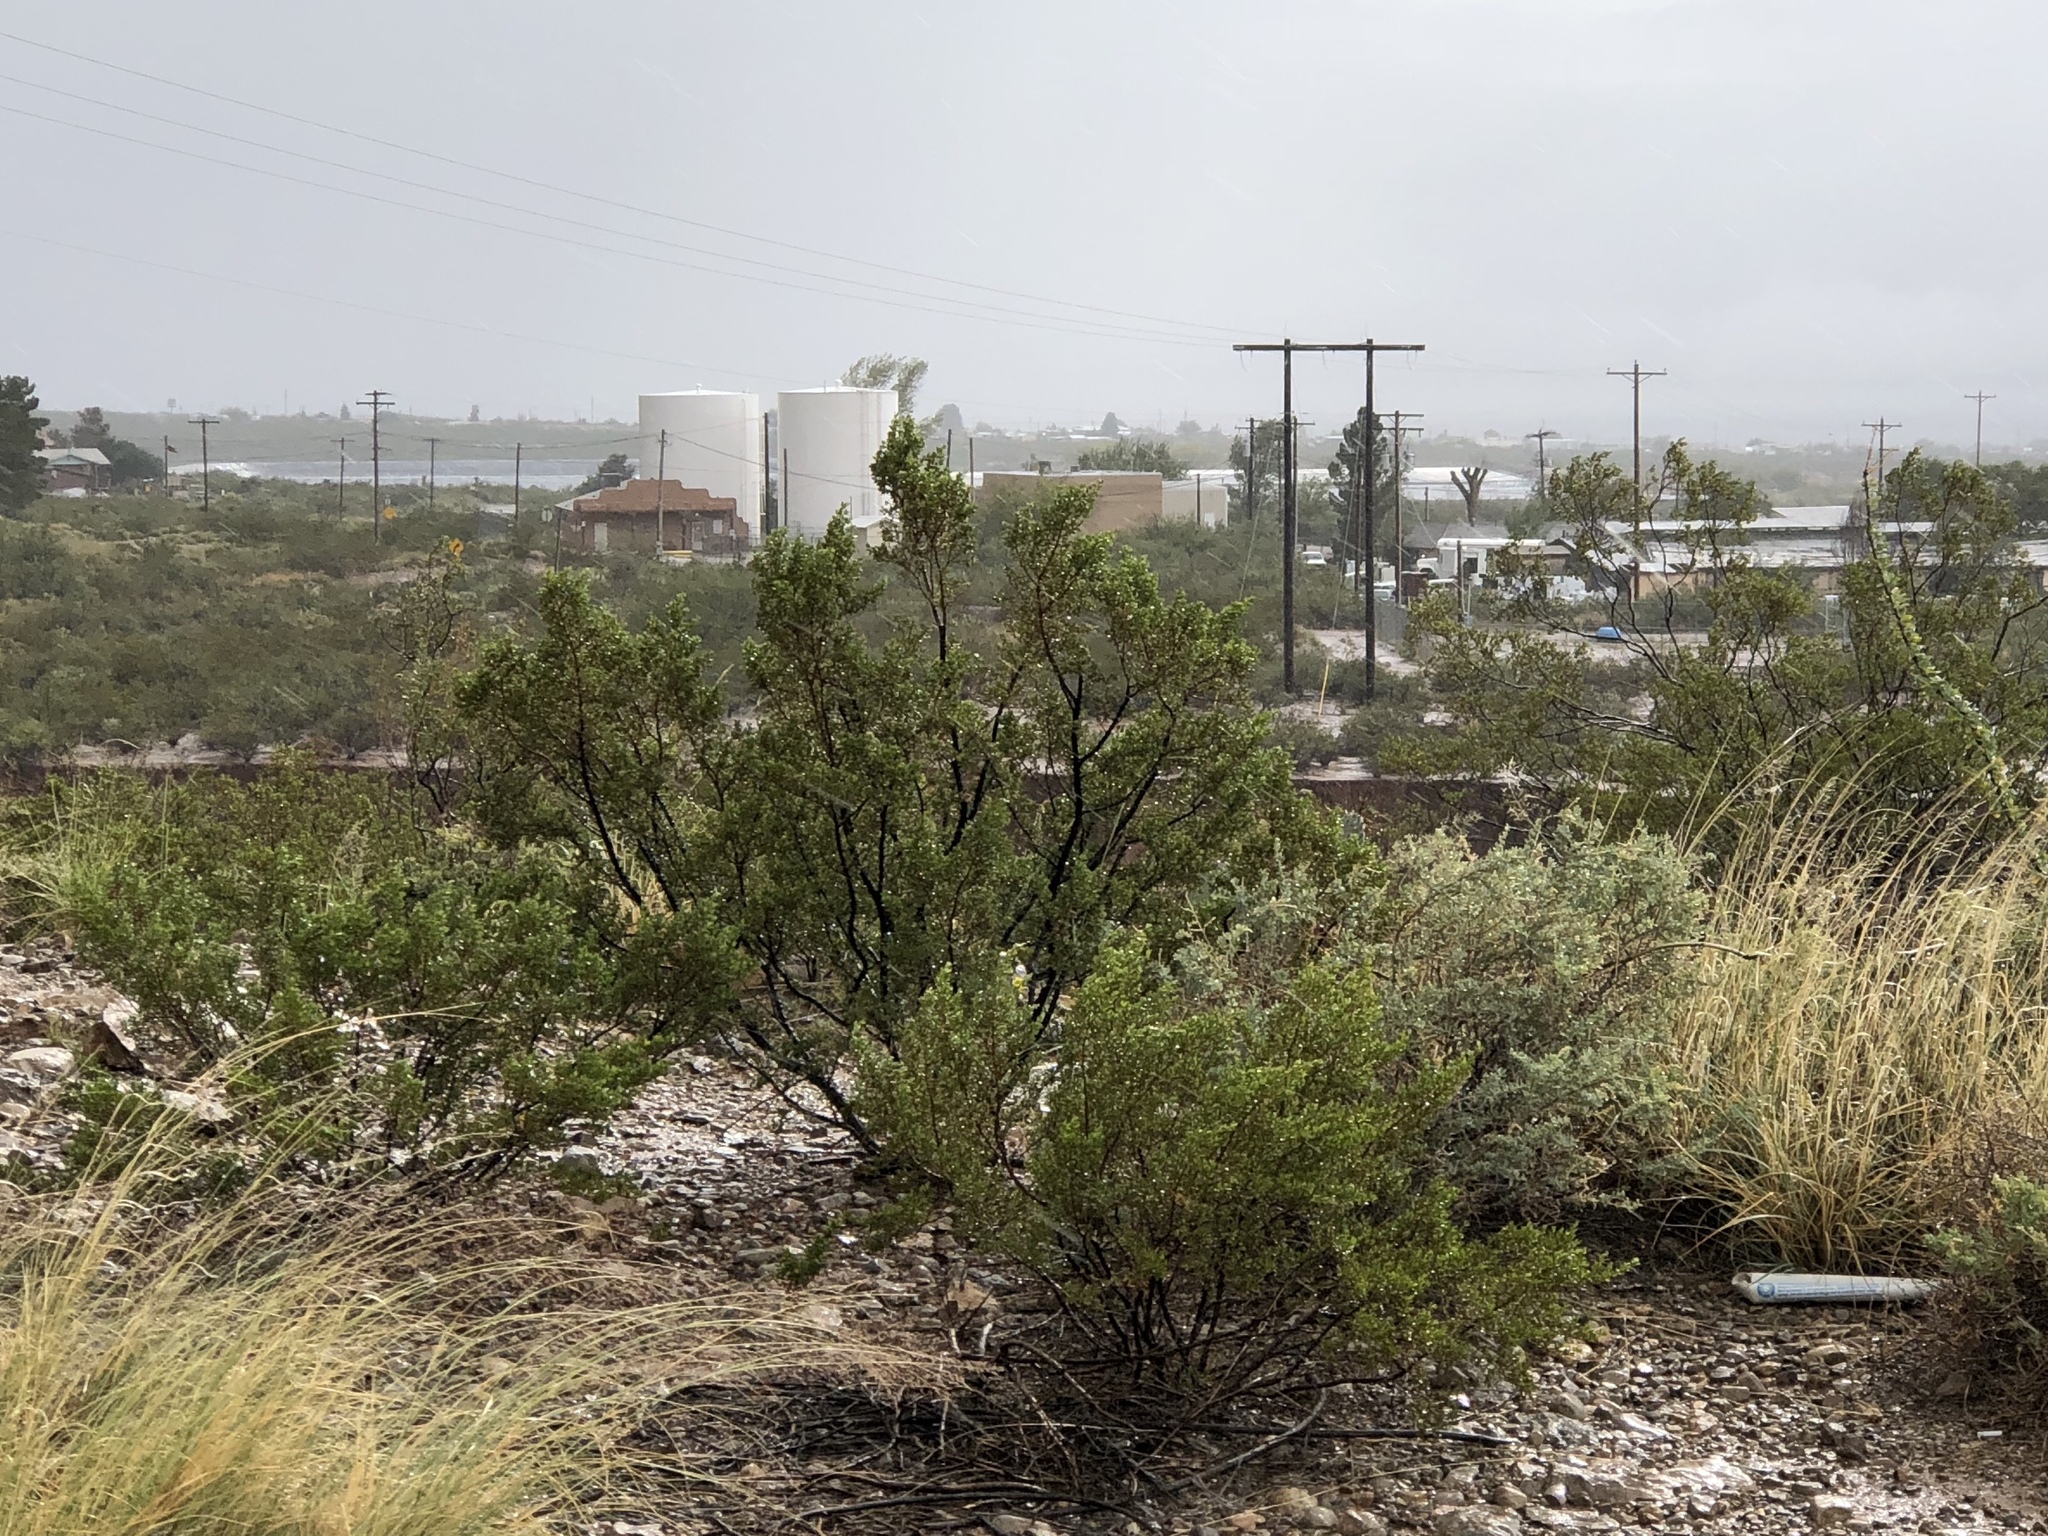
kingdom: Plantae
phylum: Tracheophyta
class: Magnoliopsida
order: Zygophyllales
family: Zygophyllaceae
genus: Larrea
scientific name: Larrea tridentata
